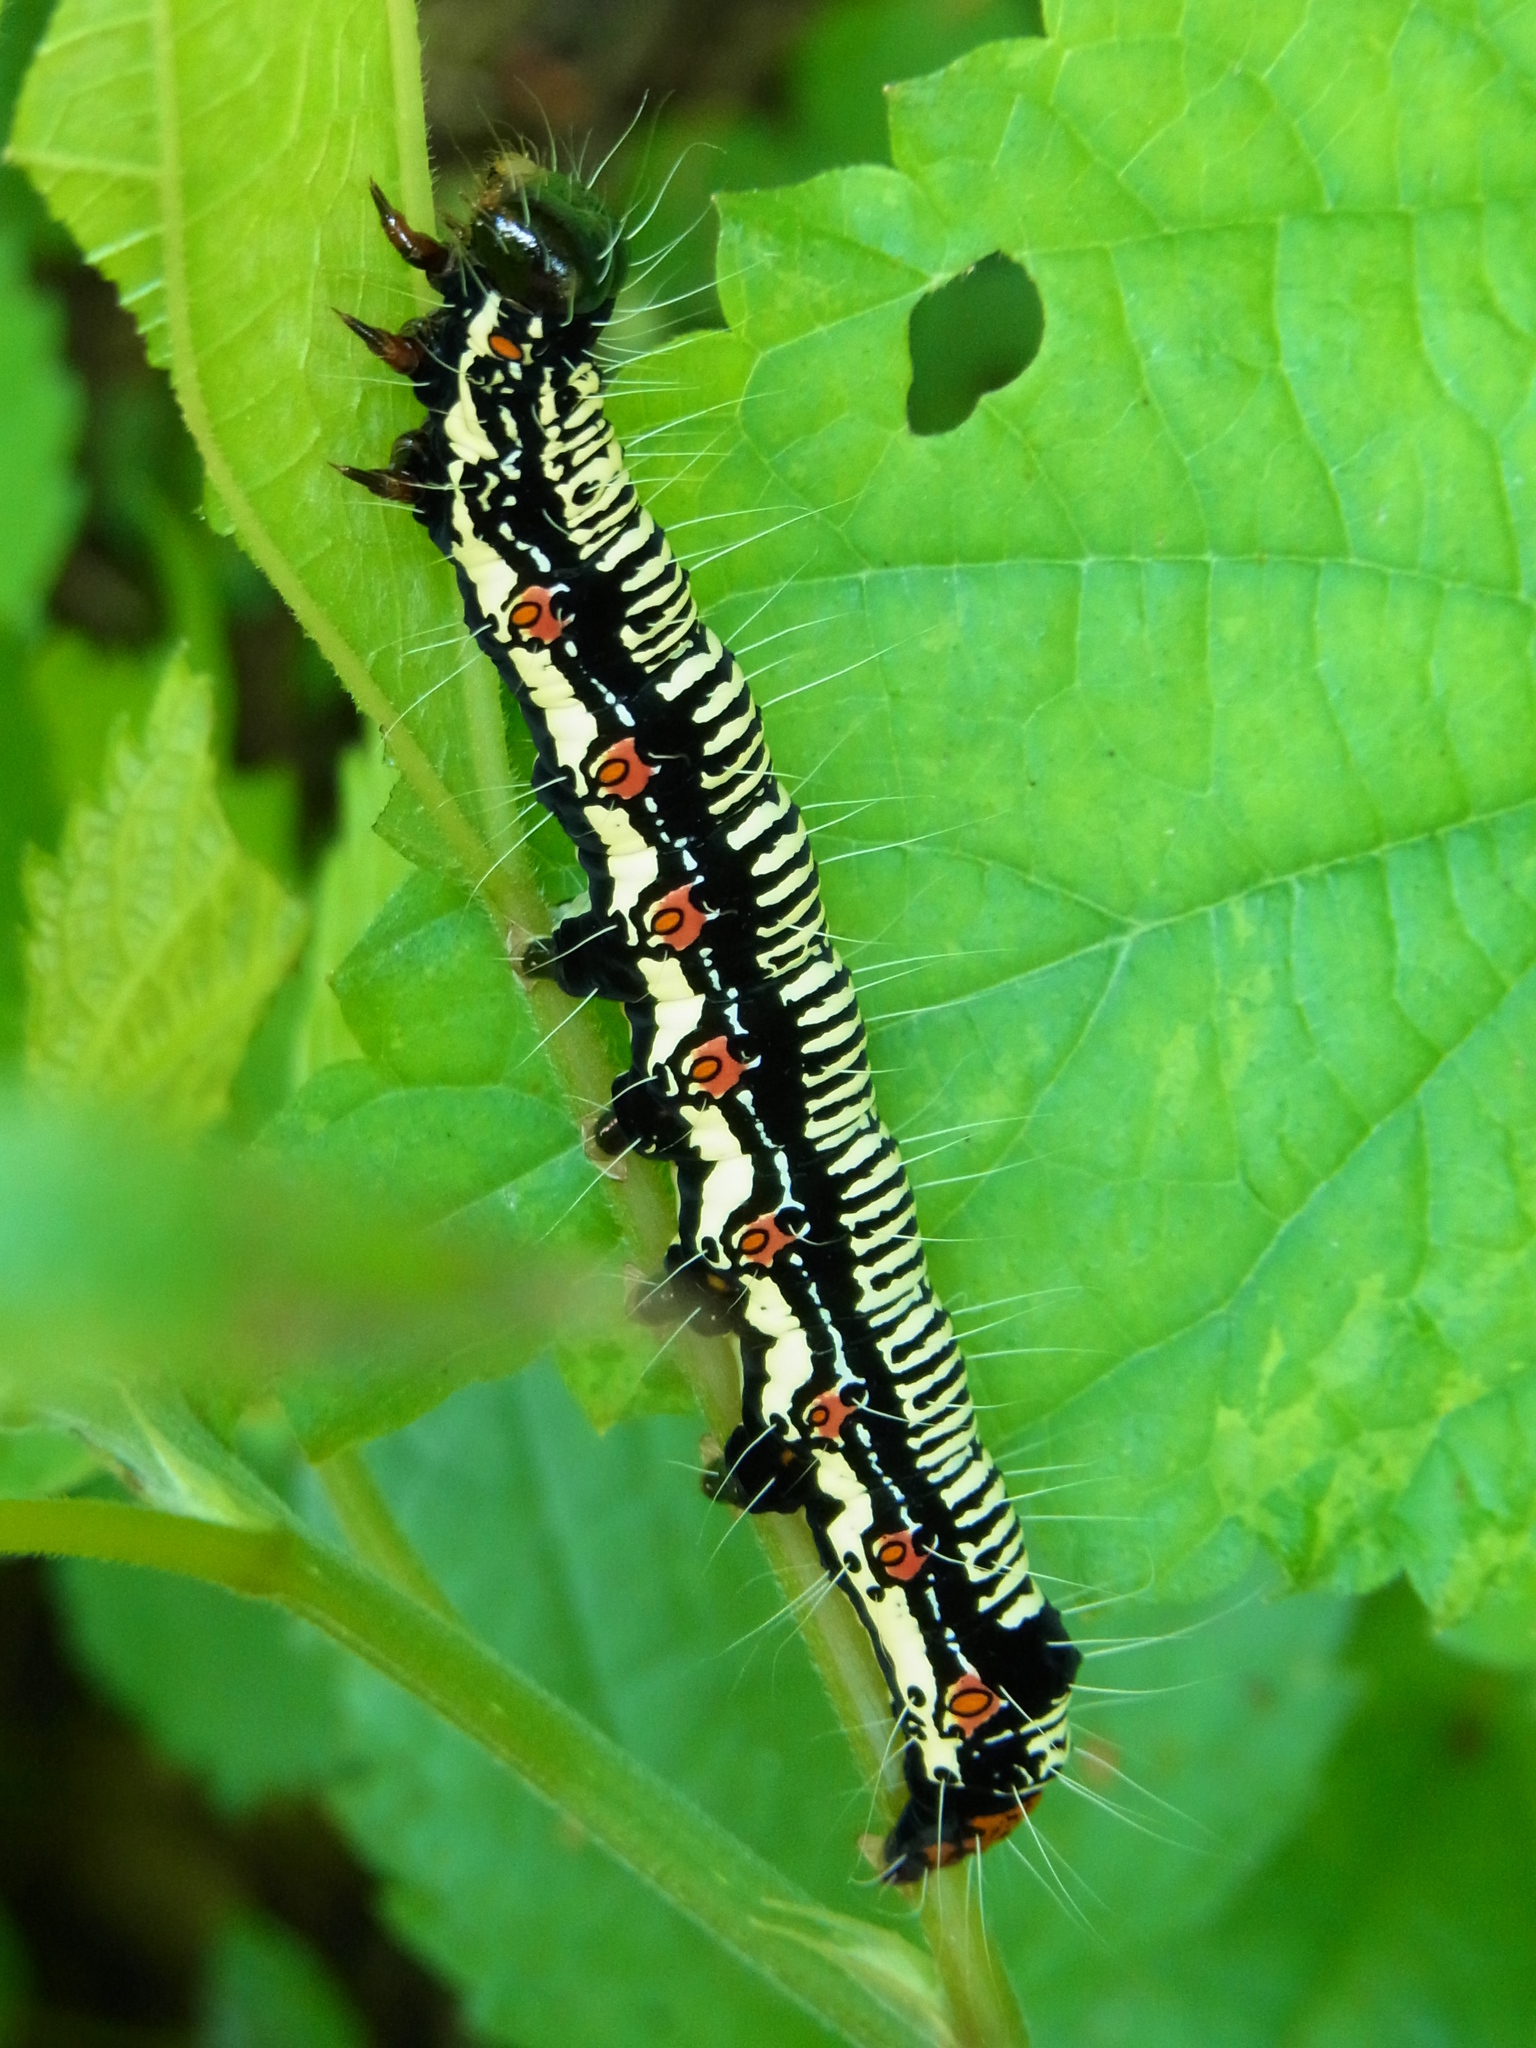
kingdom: Animalia
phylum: Arthropoda
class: Insecta
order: Lepidoptera
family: Erebidae
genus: Arcte
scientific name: Arcte coerula
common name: Ramie moth
